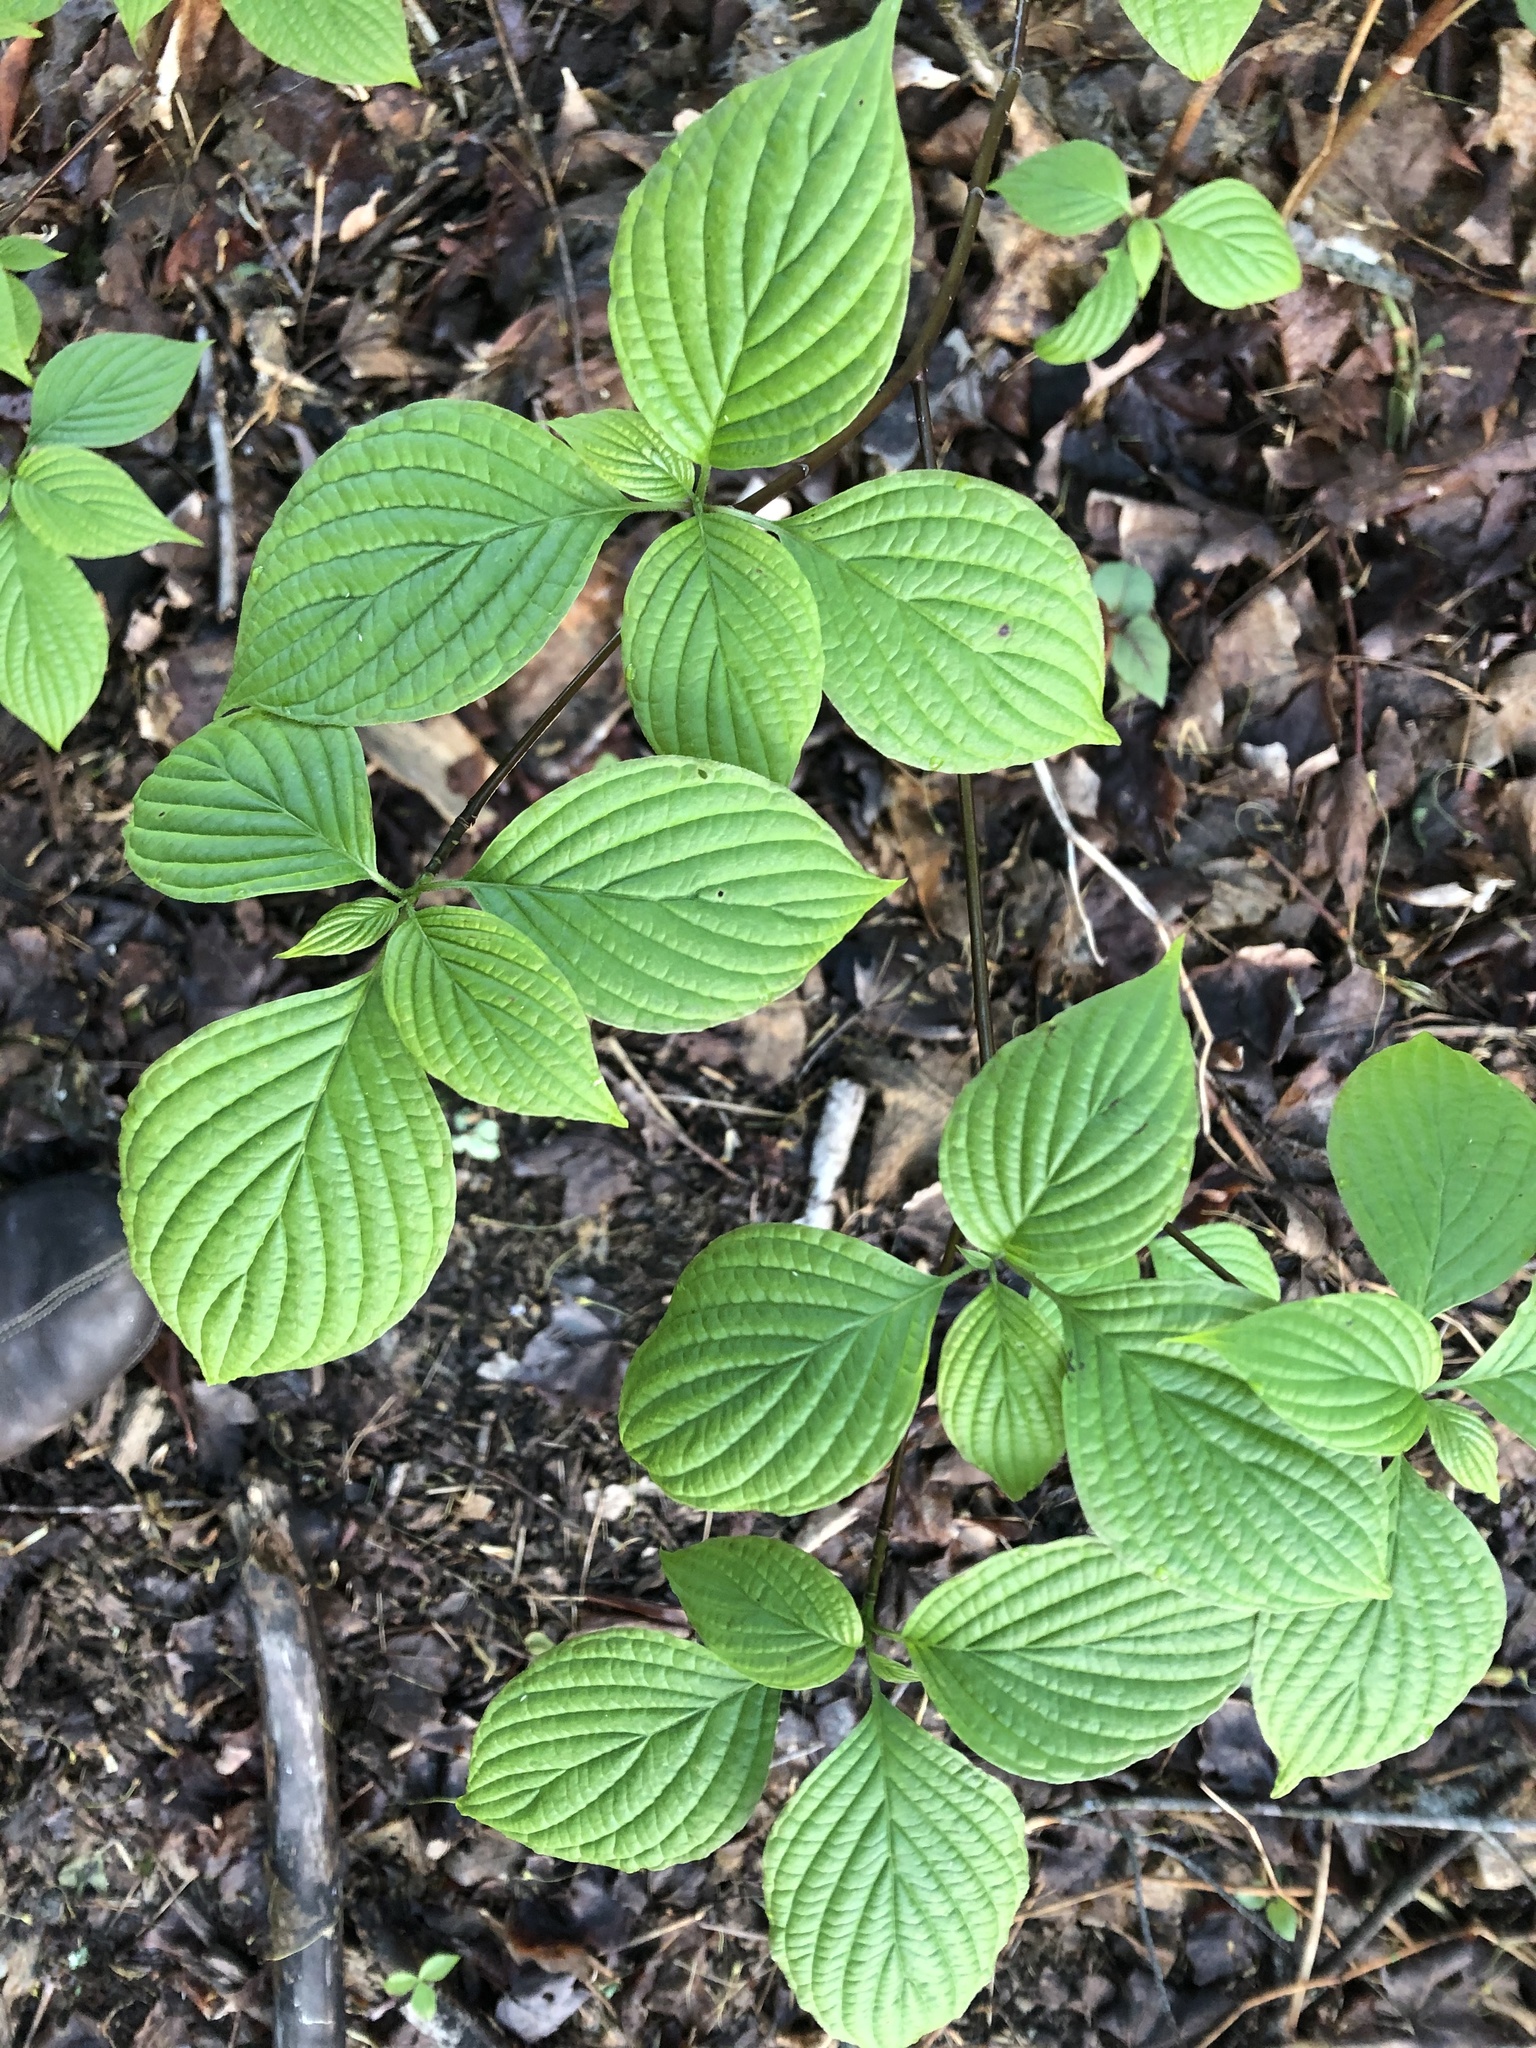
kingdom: Plantae
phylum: Tracheophyta
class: Magnoliopsida
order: Cornales
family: Cornaceae
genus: Cornus
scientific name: Cornus alternifolia
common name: Pagoda dogwood
